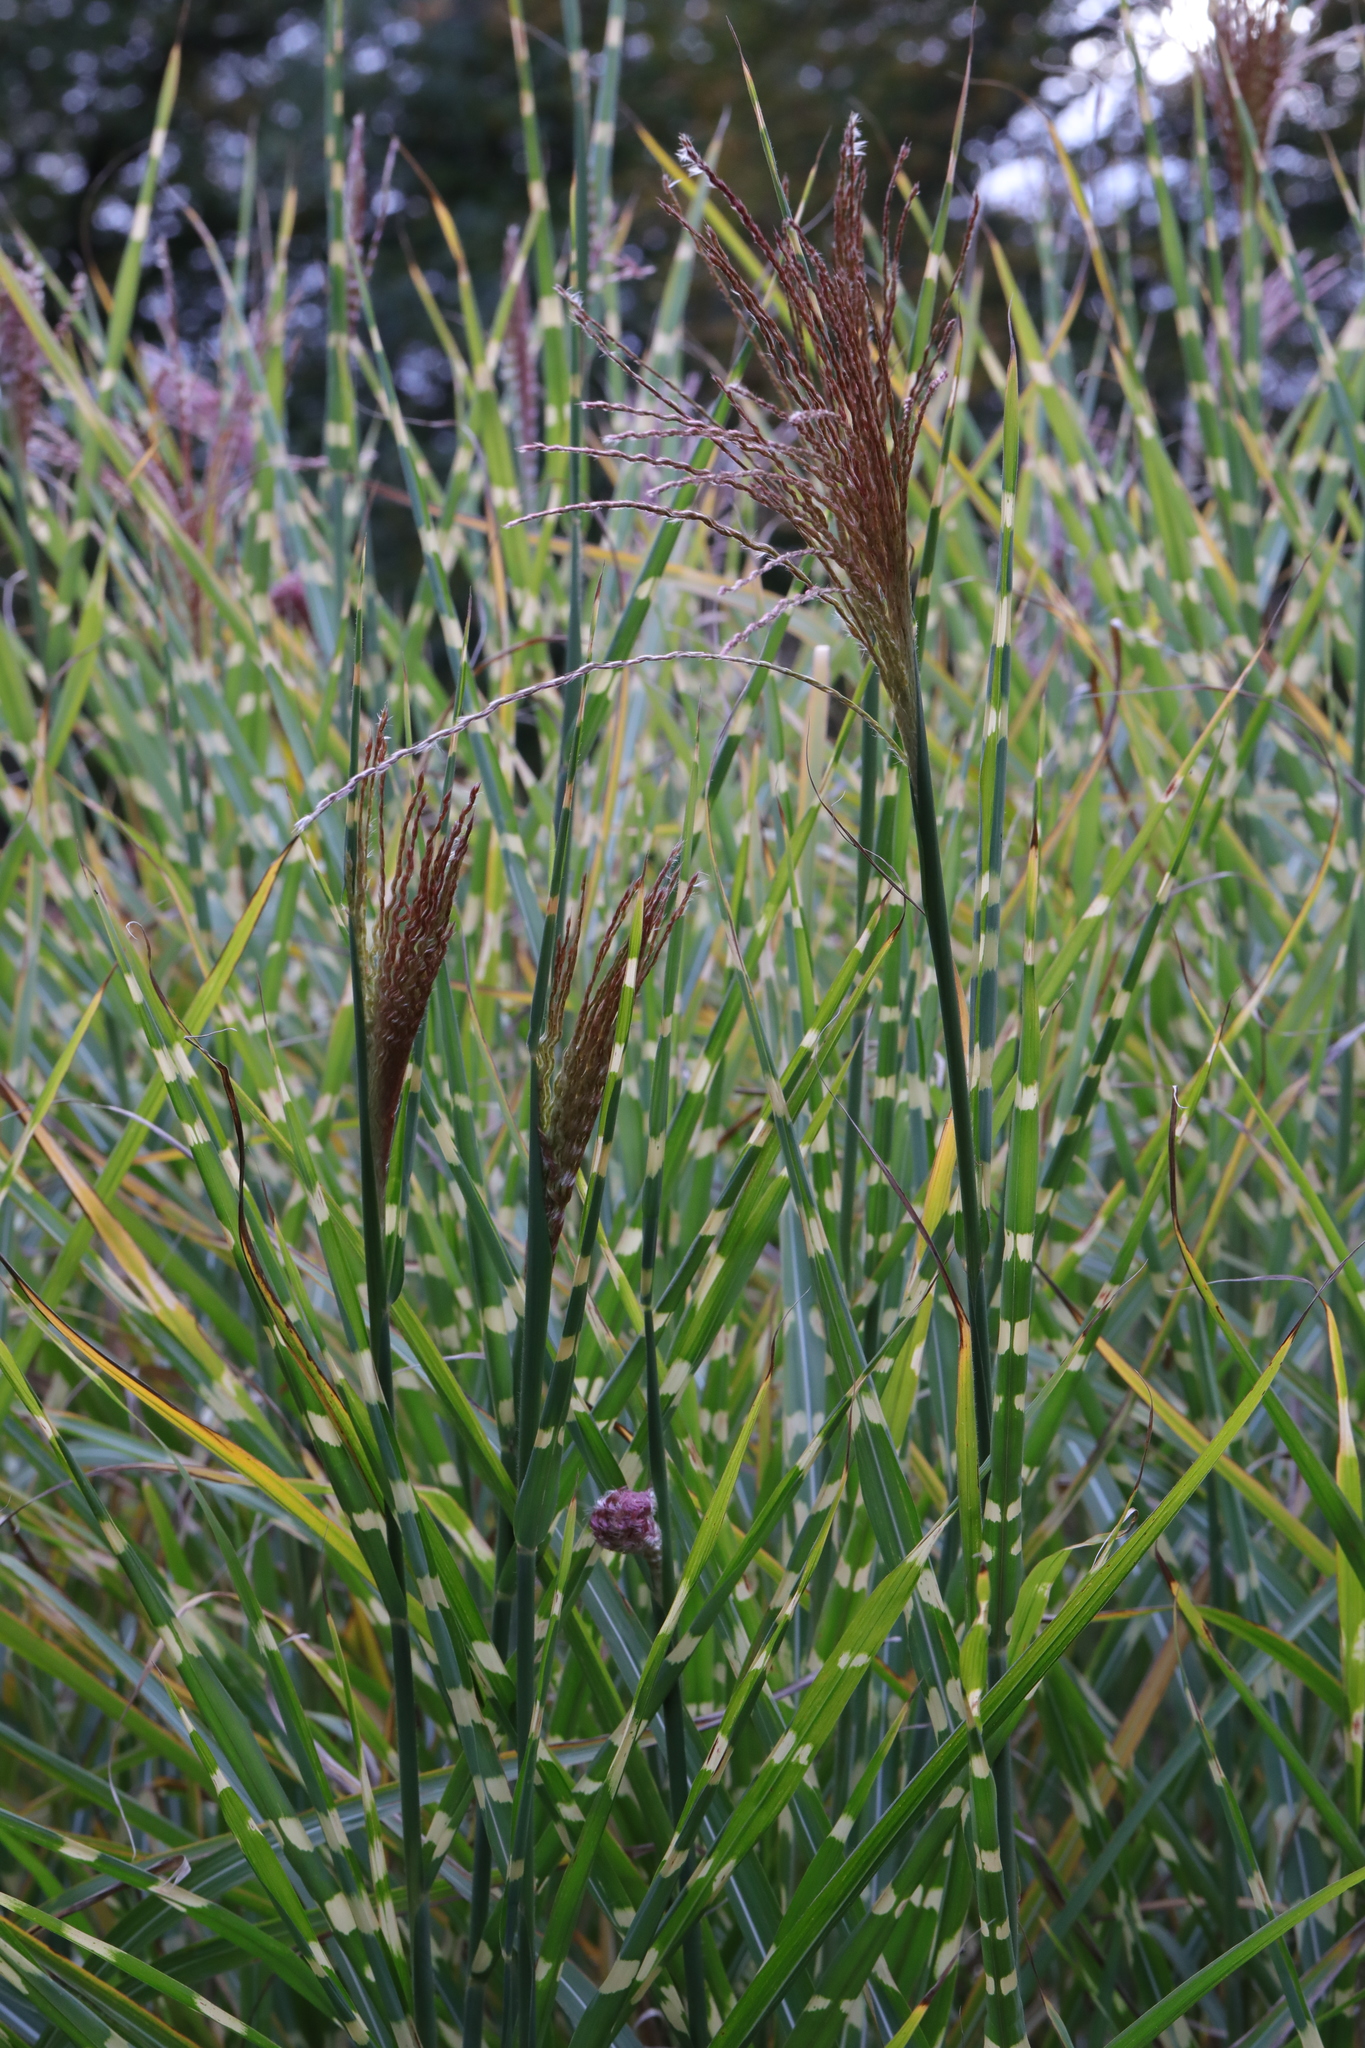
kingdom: Plantae
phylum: Tracheophyta
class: Liliopsida
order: Poales
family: Poaceae
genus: Miscanthus
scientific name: Miscanthus sinensis
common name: Chinese silvergrass
